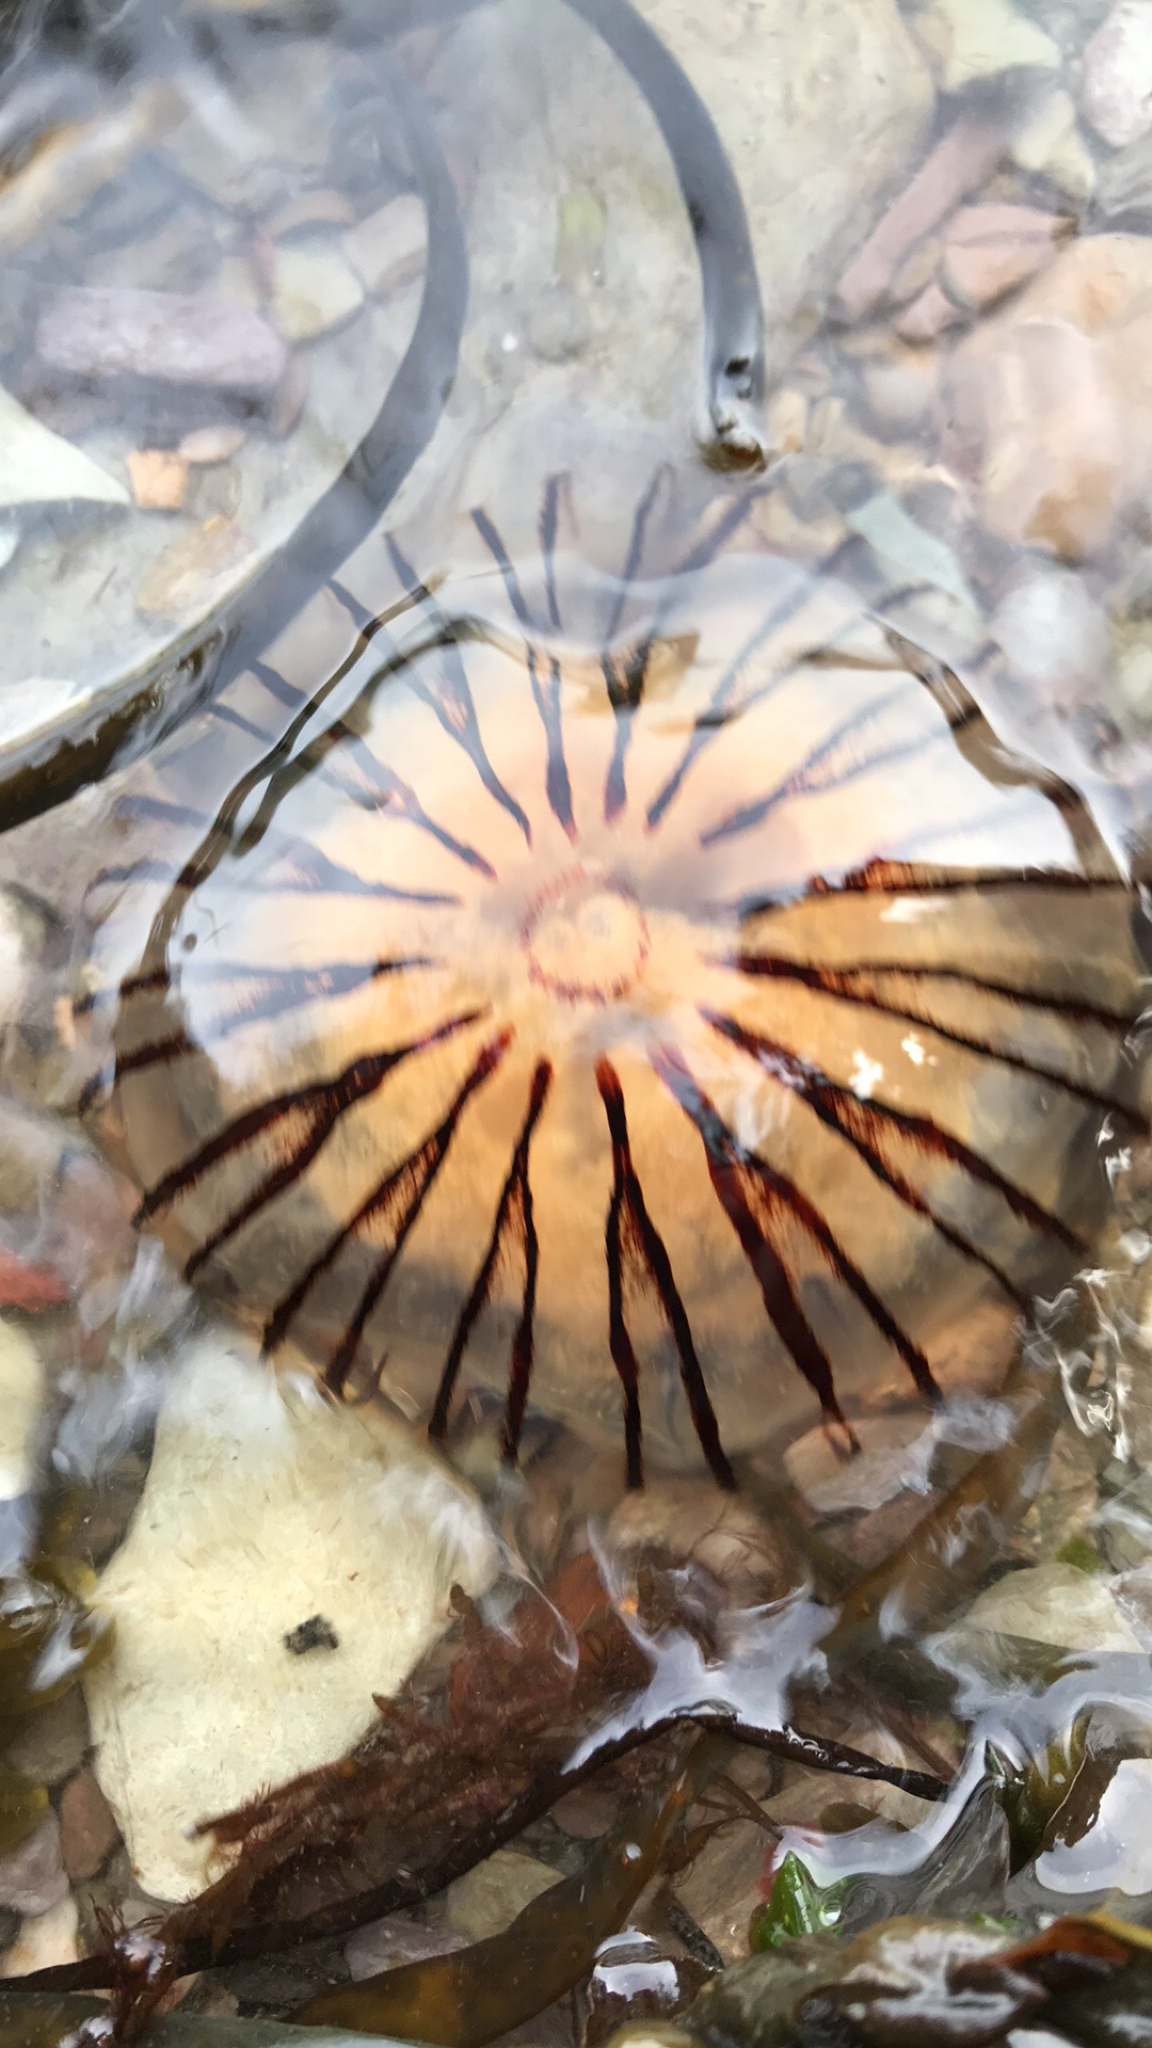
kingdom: Animalia
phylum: Cnidaria
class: Scyphozoa
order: Semaeostomeae
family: Pelagiidae
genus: Chrysaora
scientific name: Chrysaora hysoscella
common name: Compass jellyfish
